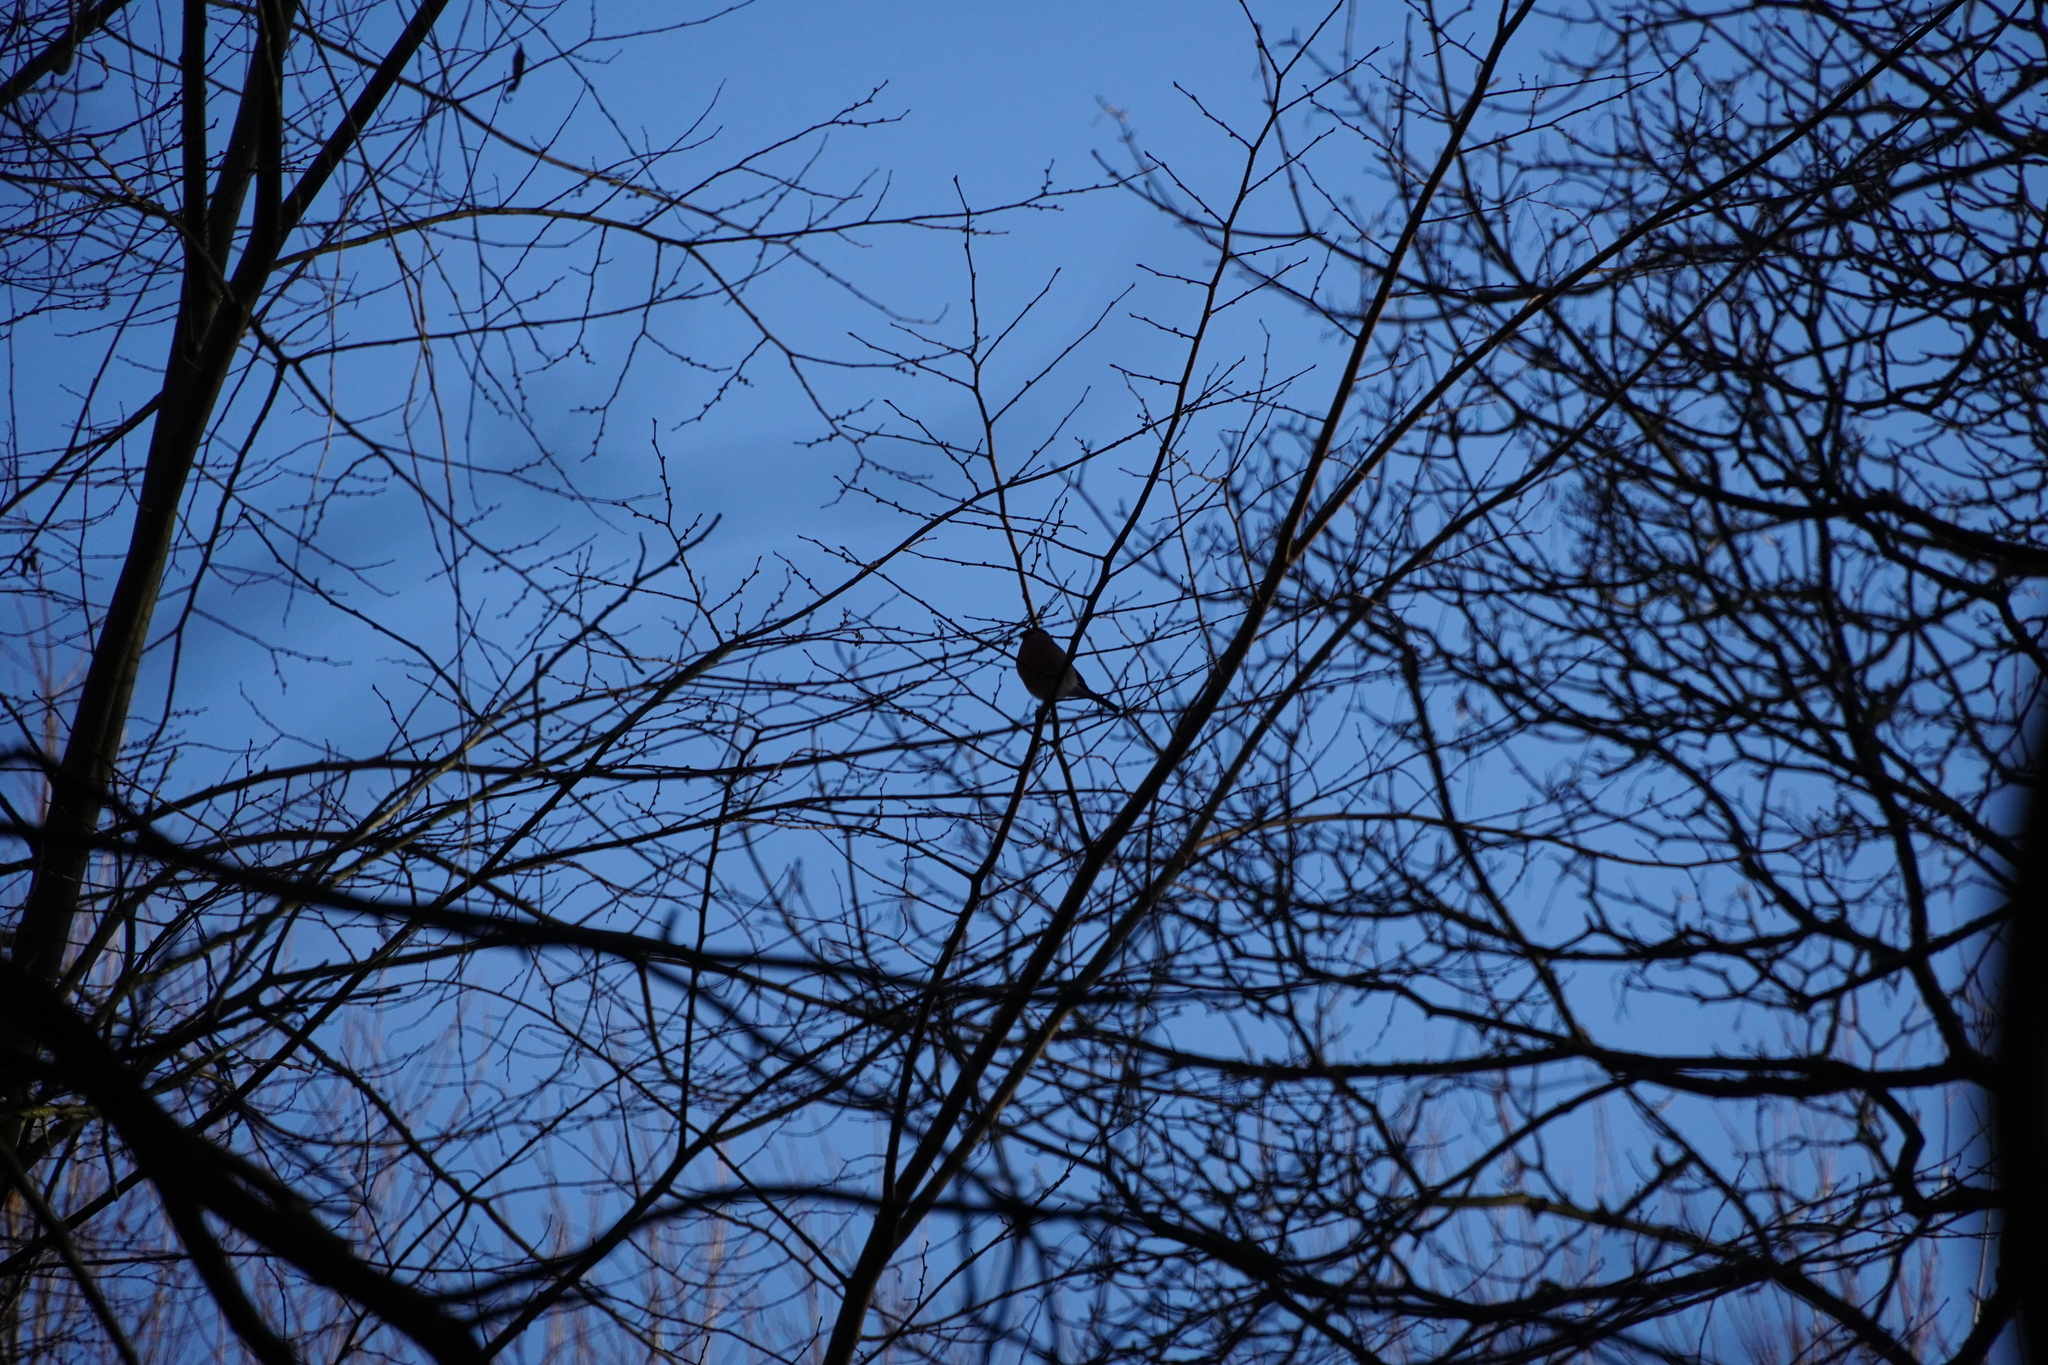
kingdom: Animalia
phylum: Chordata
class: Aves
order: Passeriformes
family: Fringillidae
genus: Pyrrhula
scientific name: Pyrrhula pyrrhula
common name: Eurasian bullfinch
